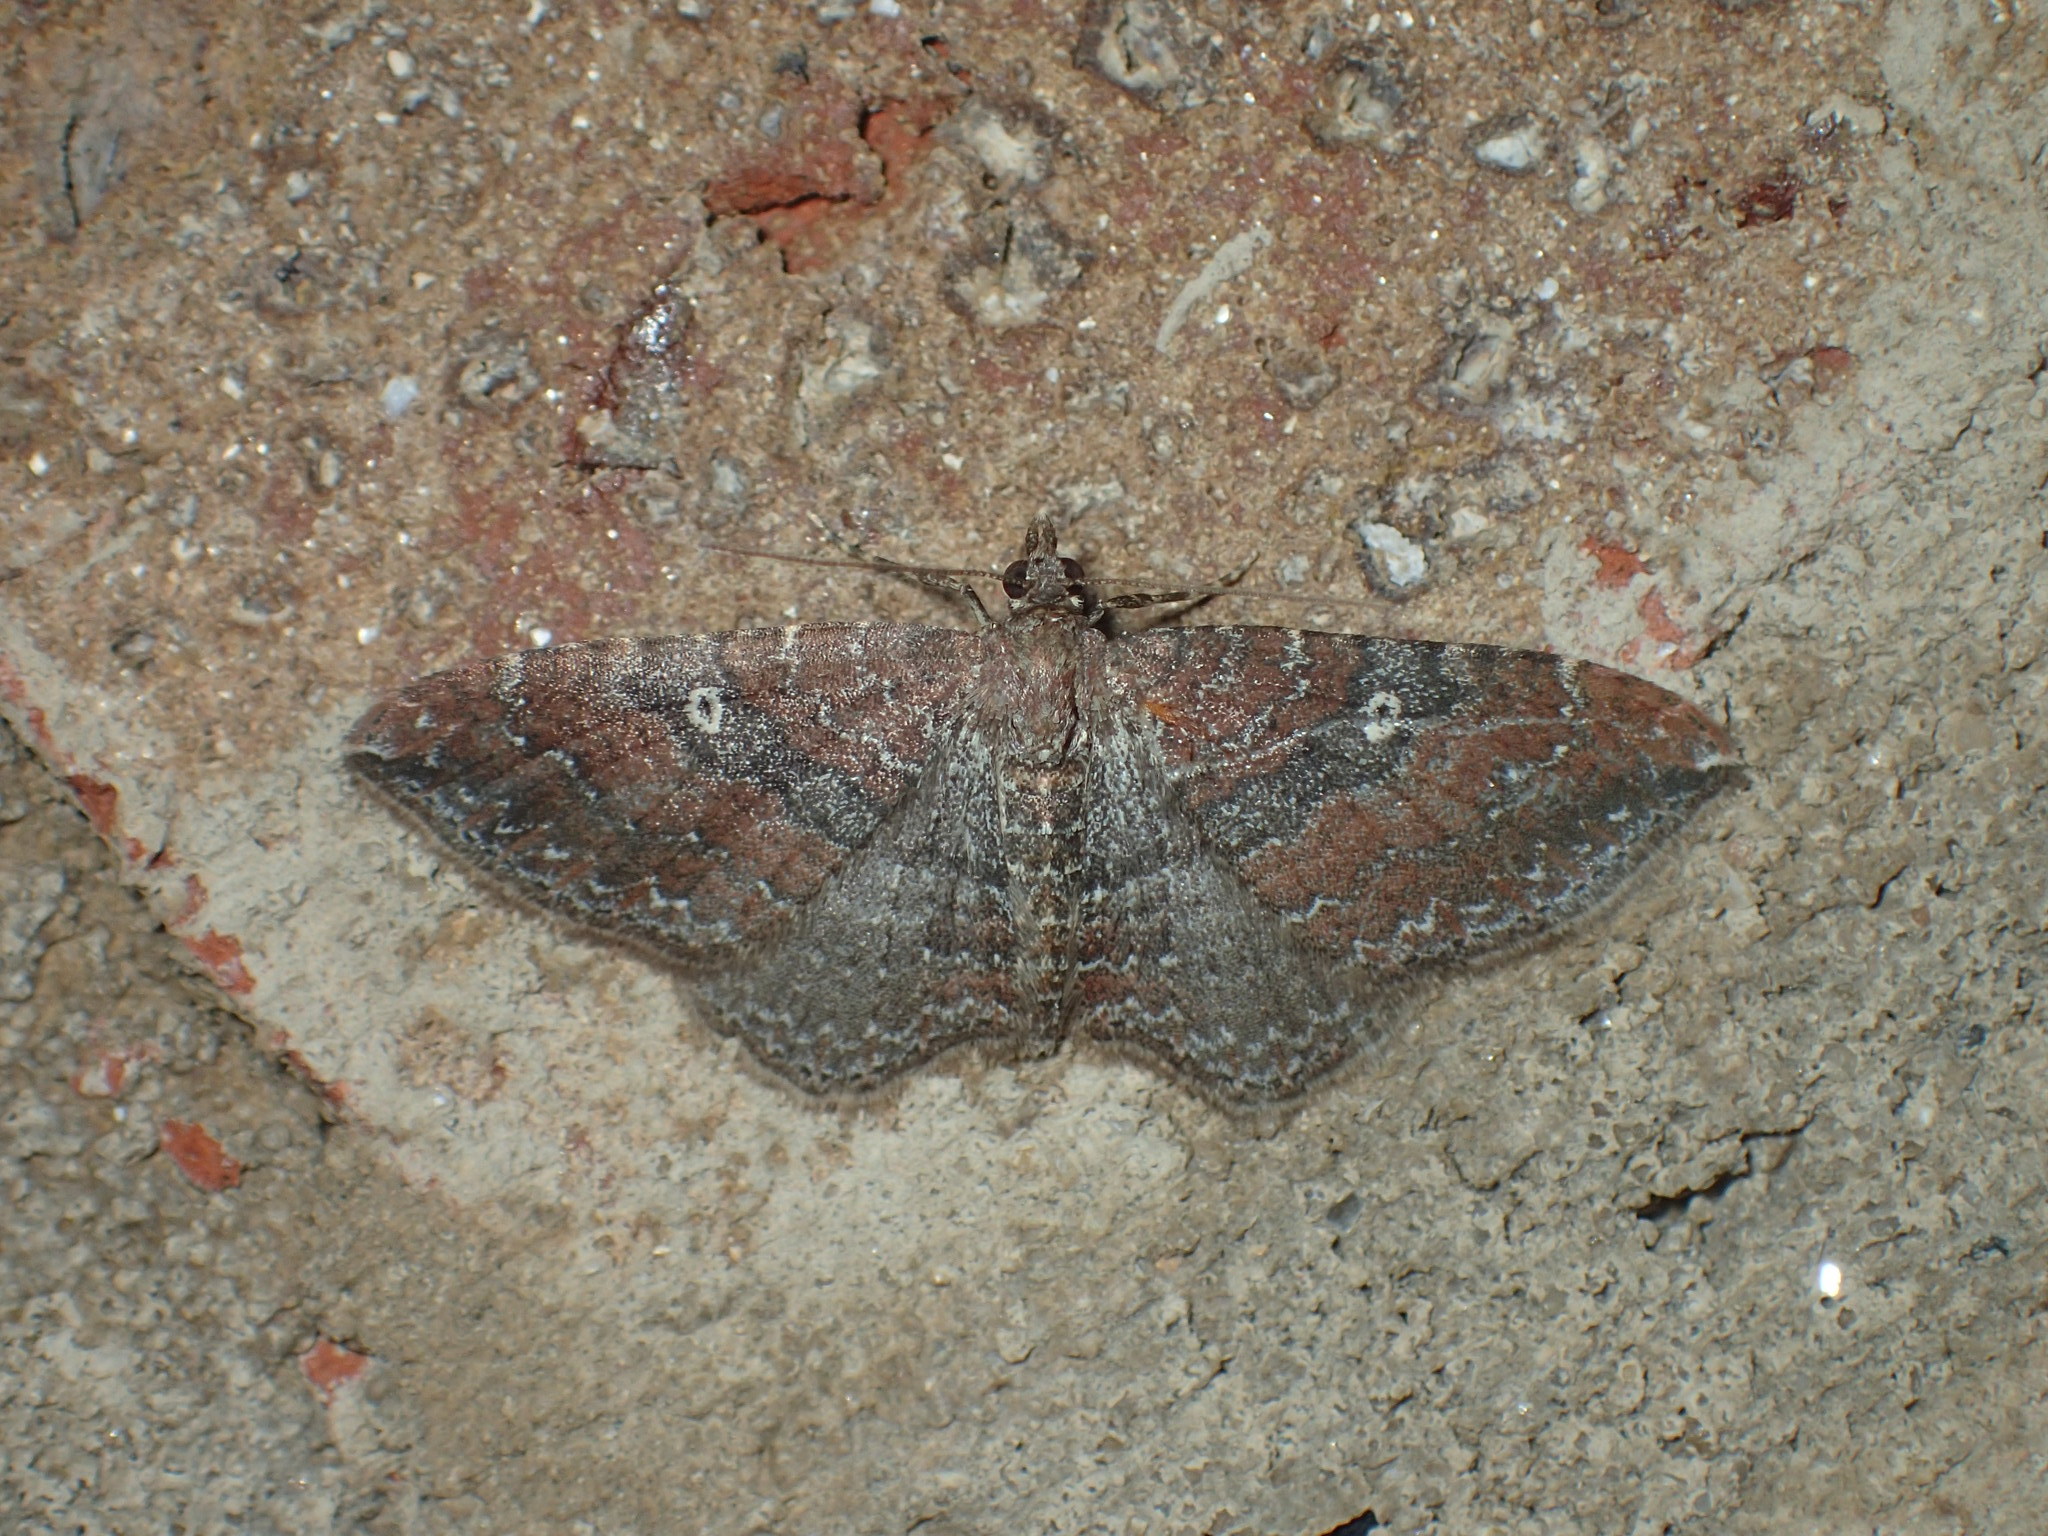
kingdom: Animalia
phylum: Arthropoda
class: Insecta
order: Lepidoptera
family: Geometridae
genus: Orthonama
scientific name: Orthonama obstipata
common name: The gem
